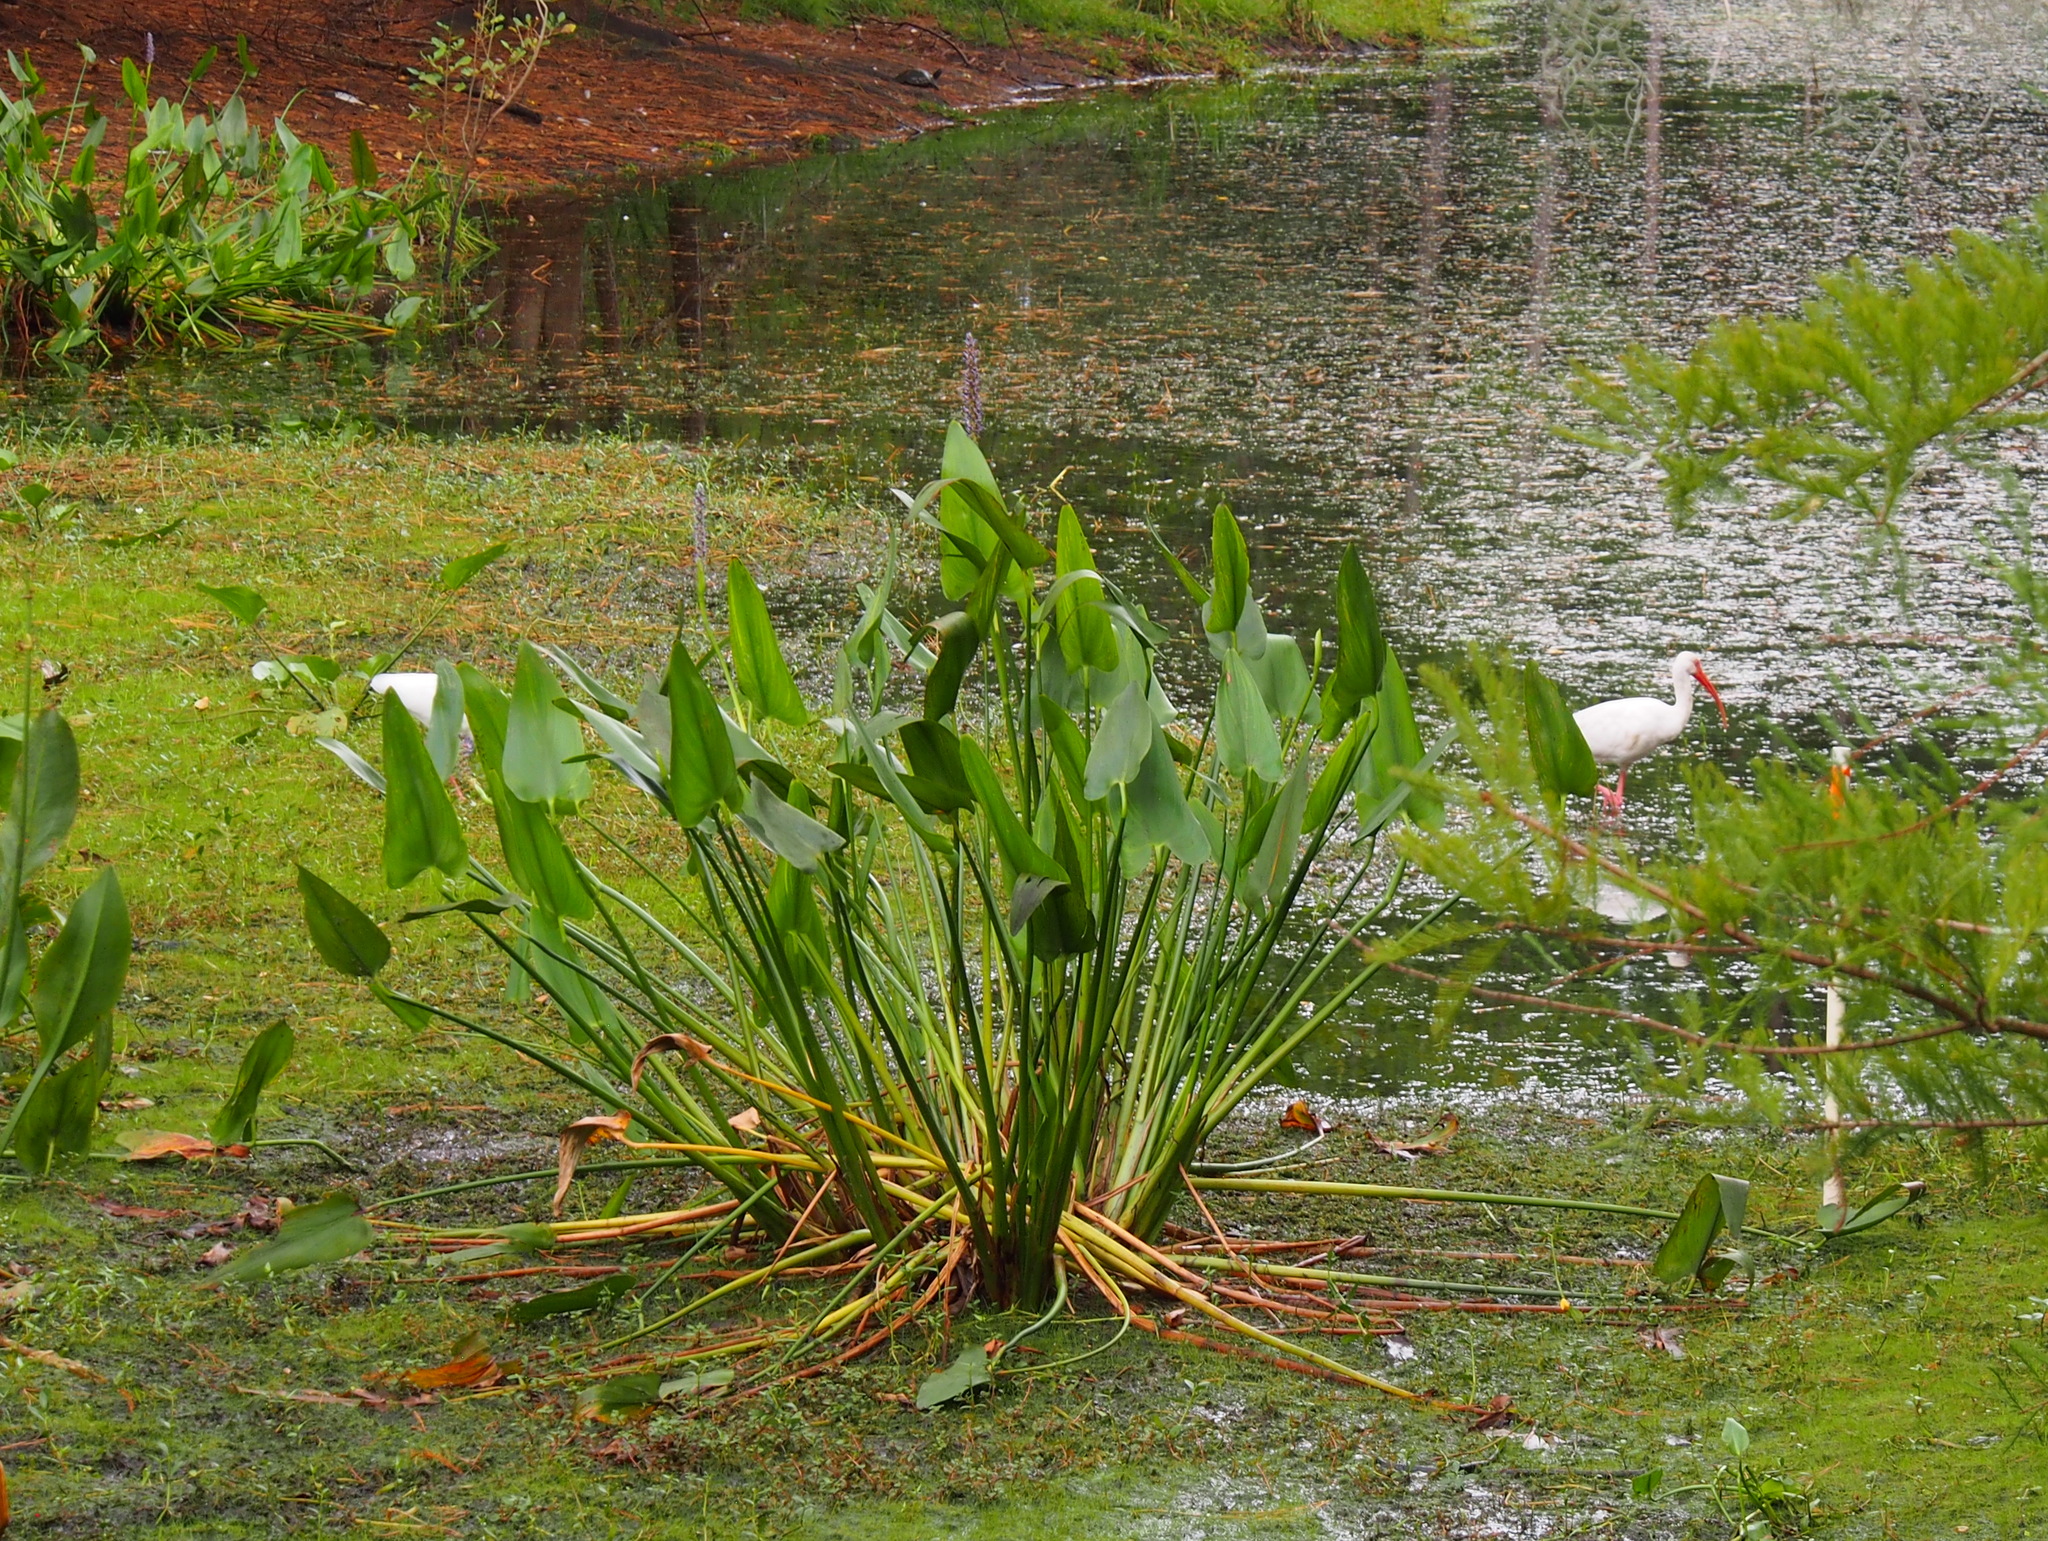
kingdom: Plantae
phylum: Tracheophyta
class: Liliopsida
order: Commelinales
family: Pontederiaceae
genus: Pontederia
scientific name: Pontederia cordata
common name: Pickerelweed
